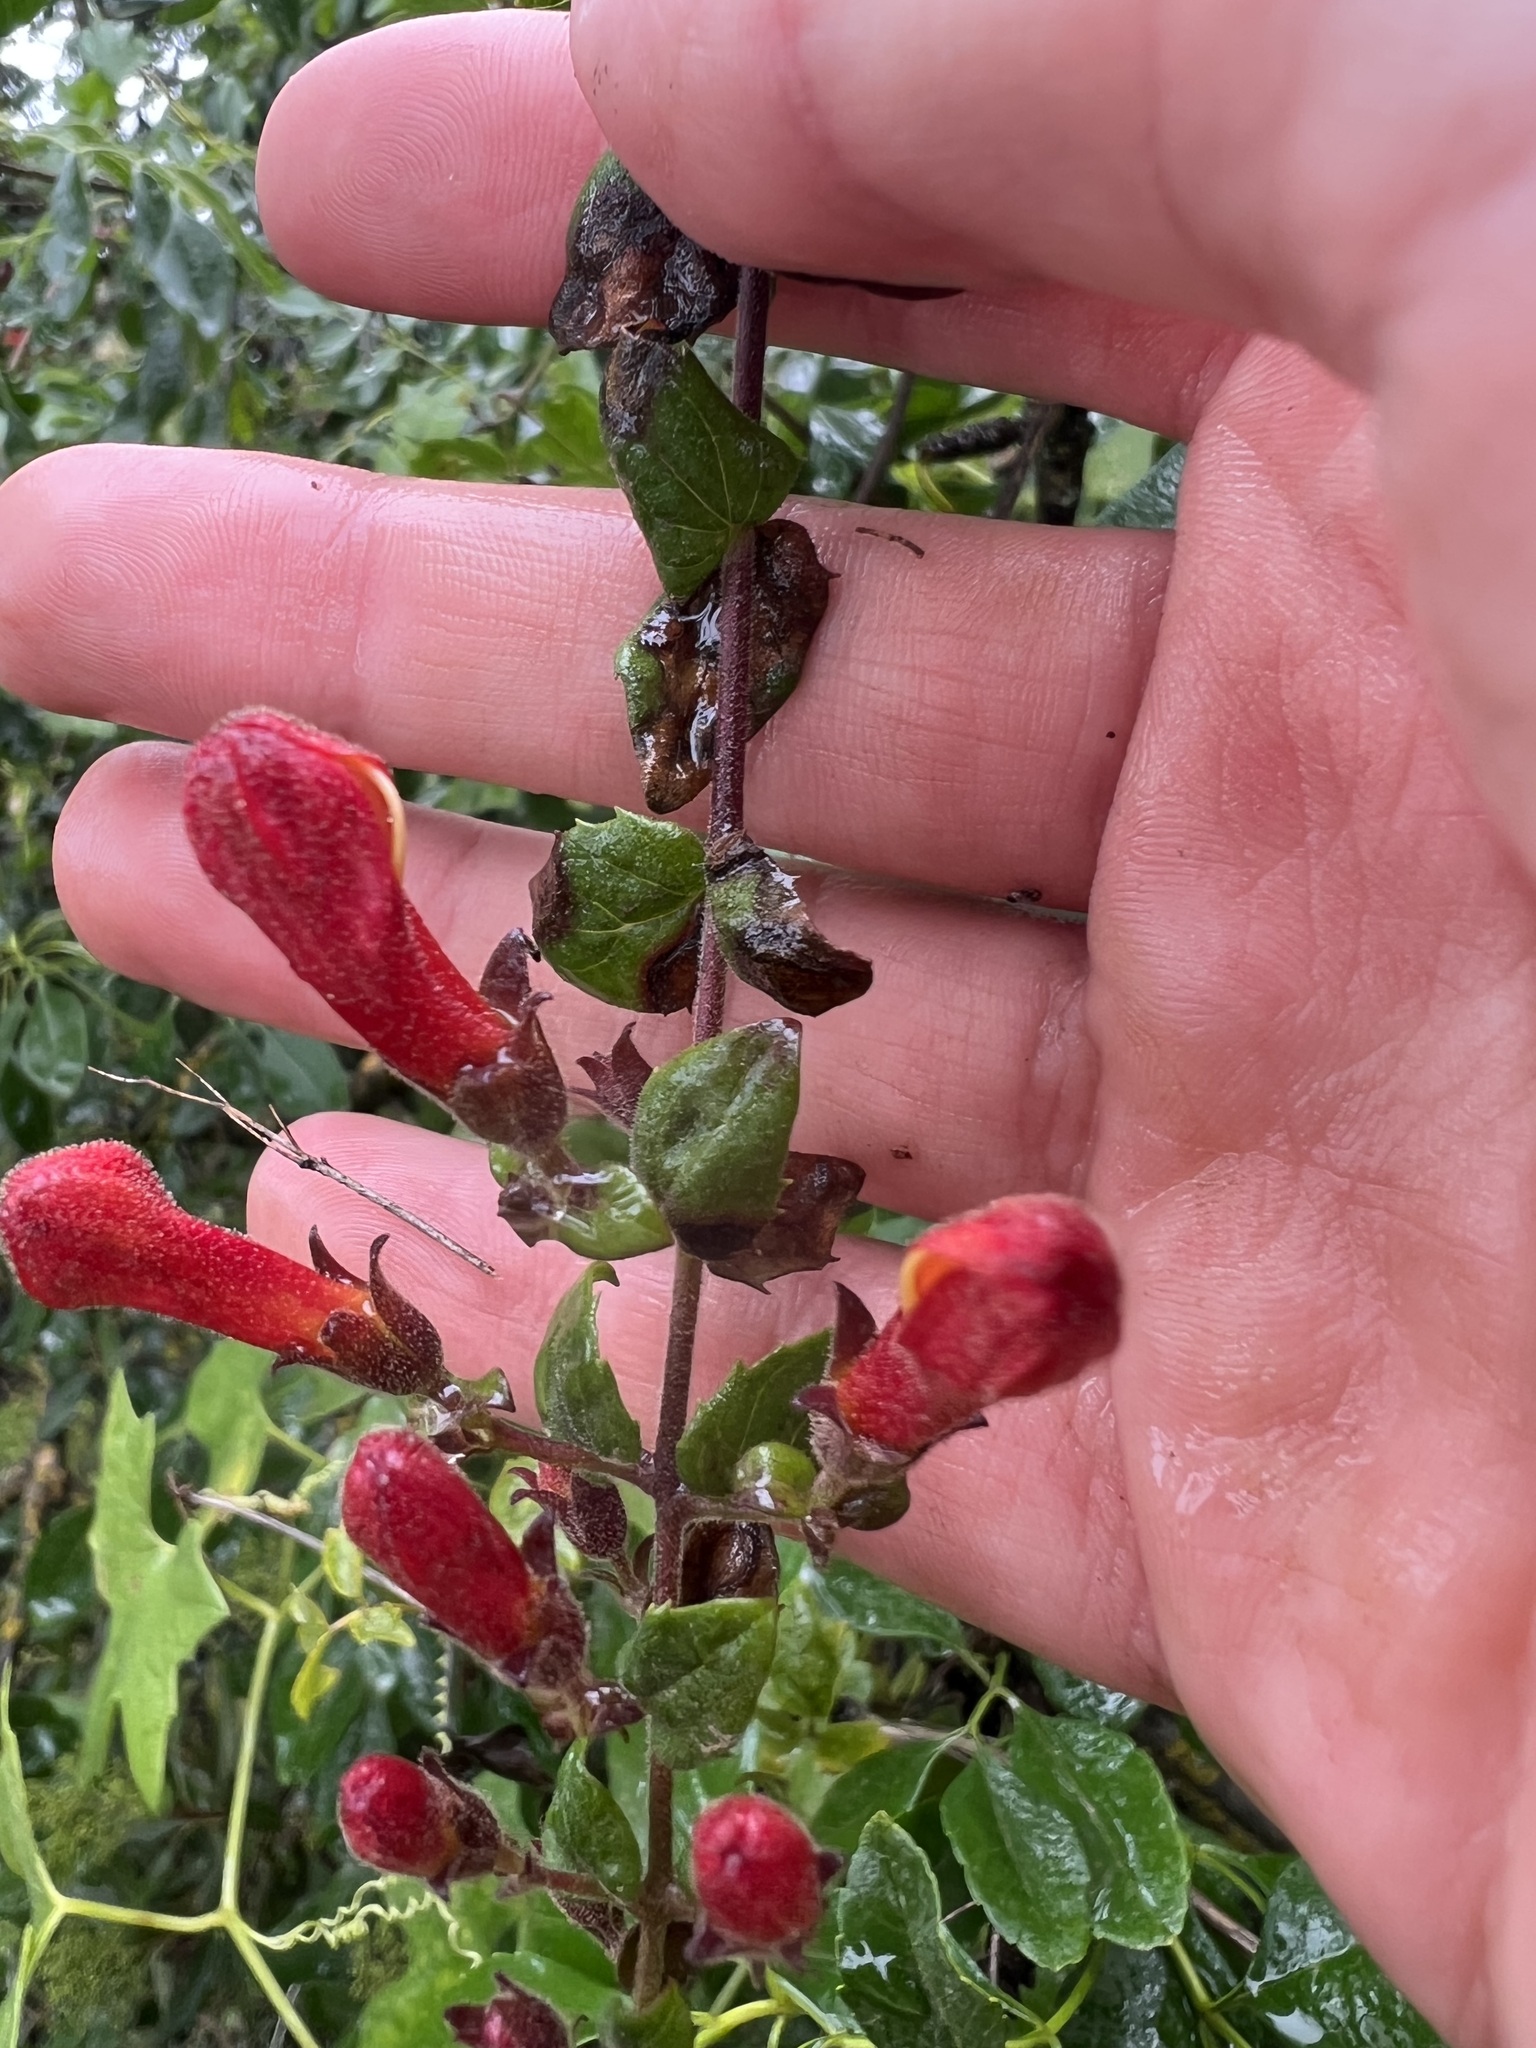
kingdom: Plantae
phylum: Tracheophyta
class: Magnoliopsida
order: Lamiales
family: Plantaginaceae
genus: Keckiella
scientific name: Keckiella cordifolia
